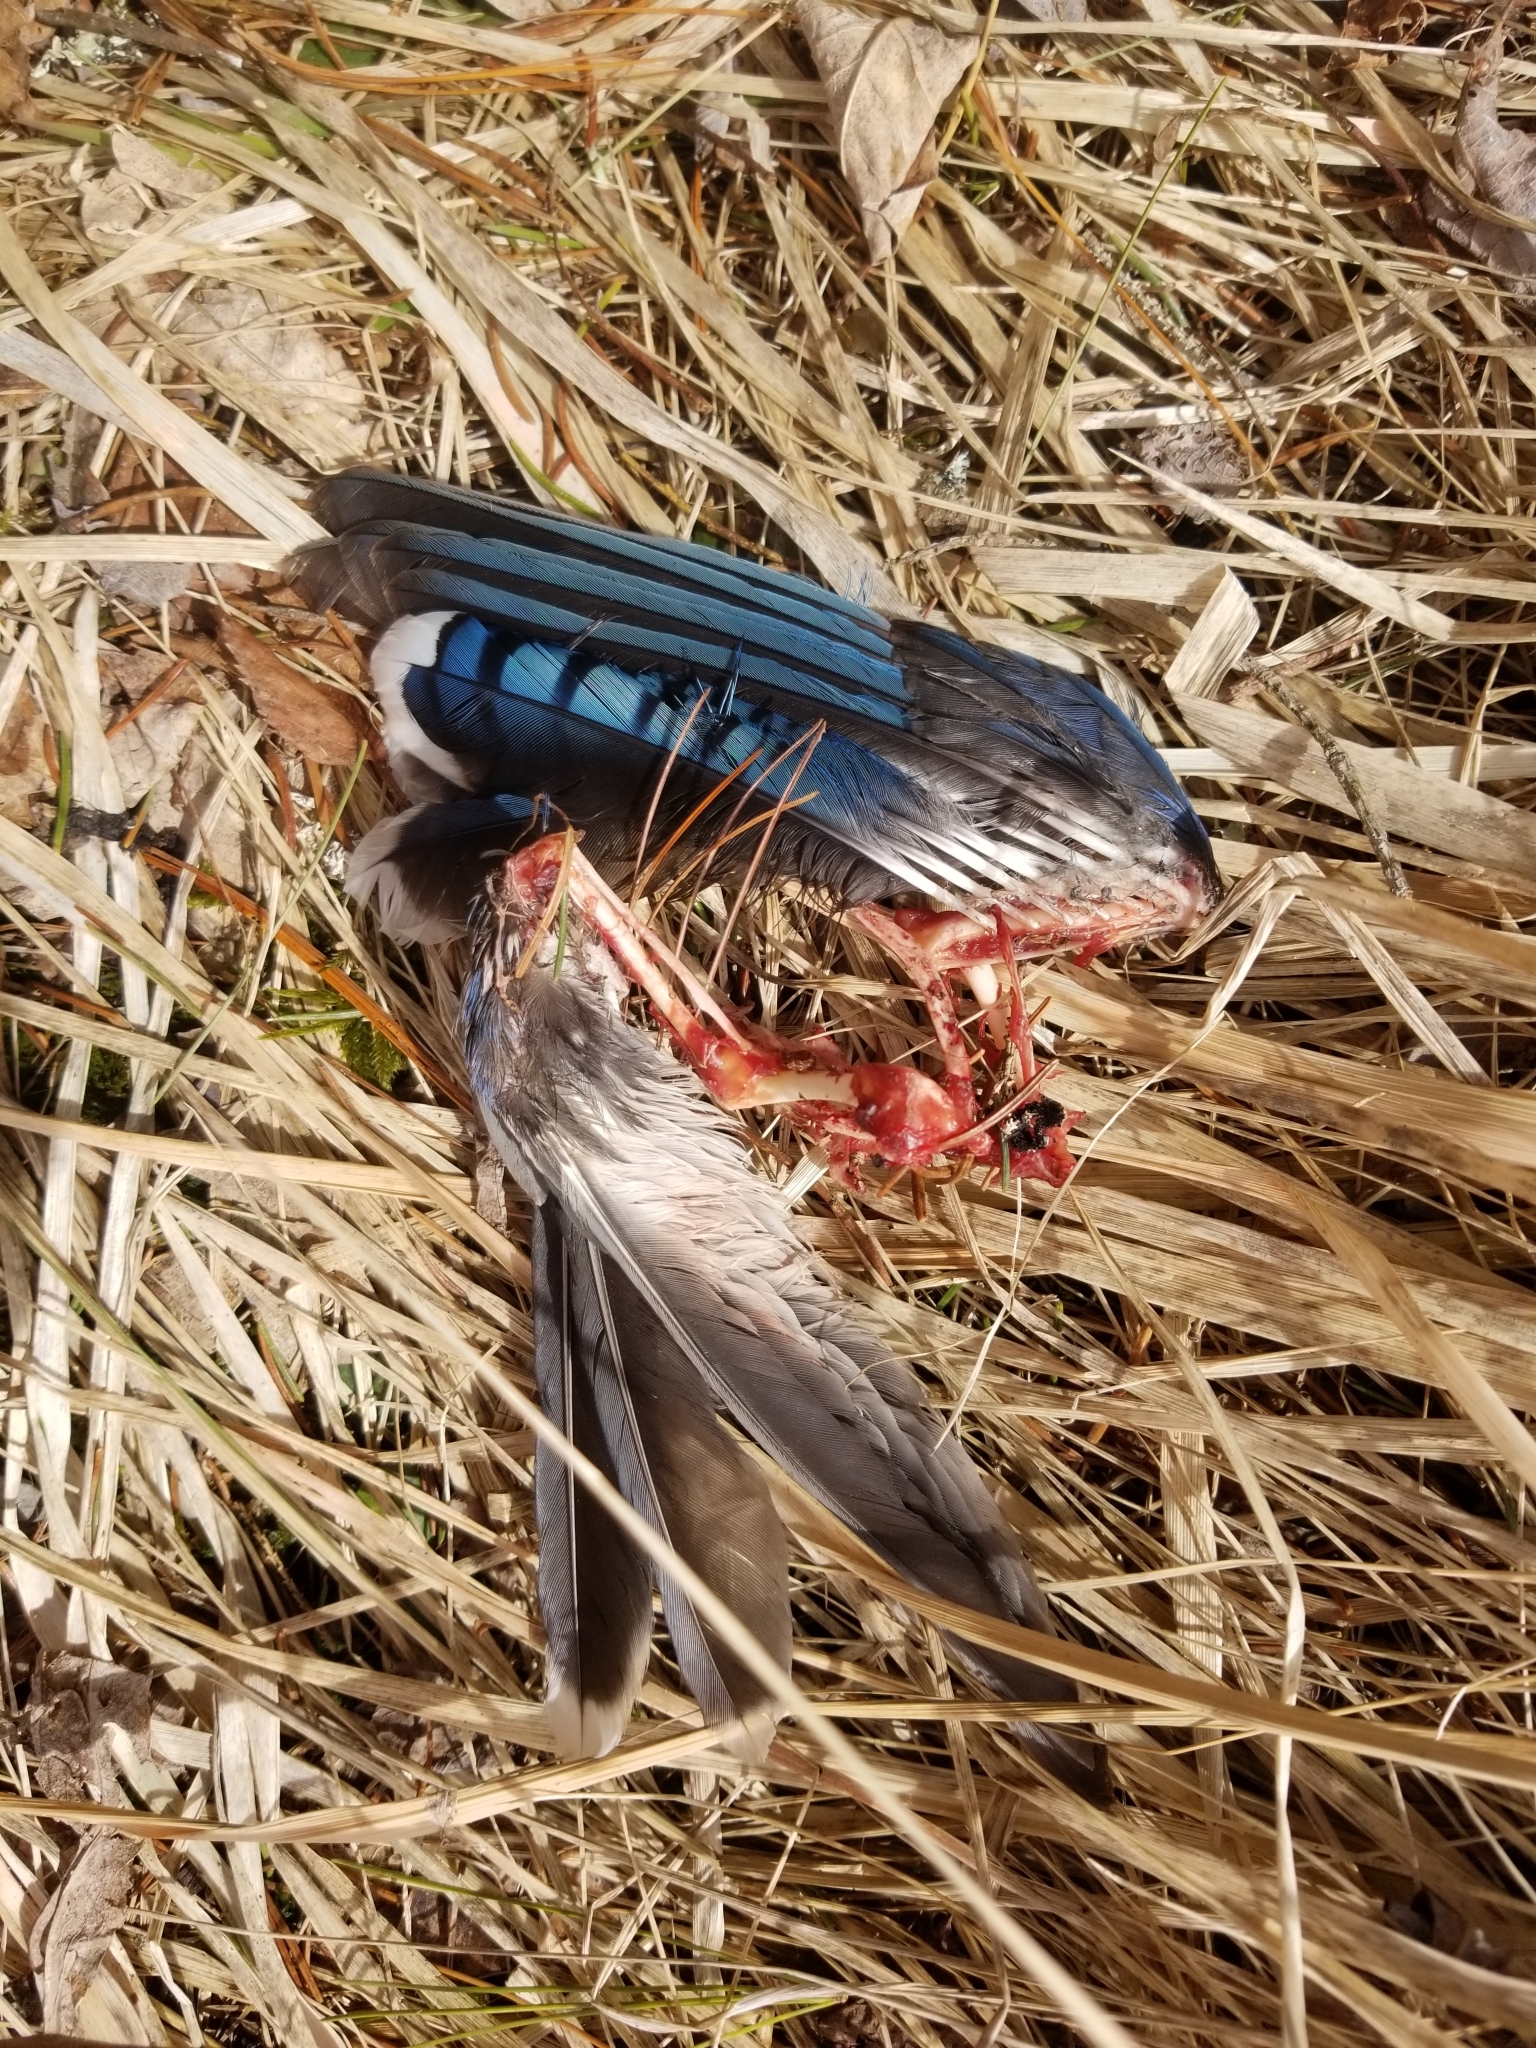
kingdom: Animalia
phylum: Chordata
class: Aves
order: Passeriformes
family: Corvidae
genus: Cyanocitta
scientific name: Cyanocitta cristata
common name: Blue jay
